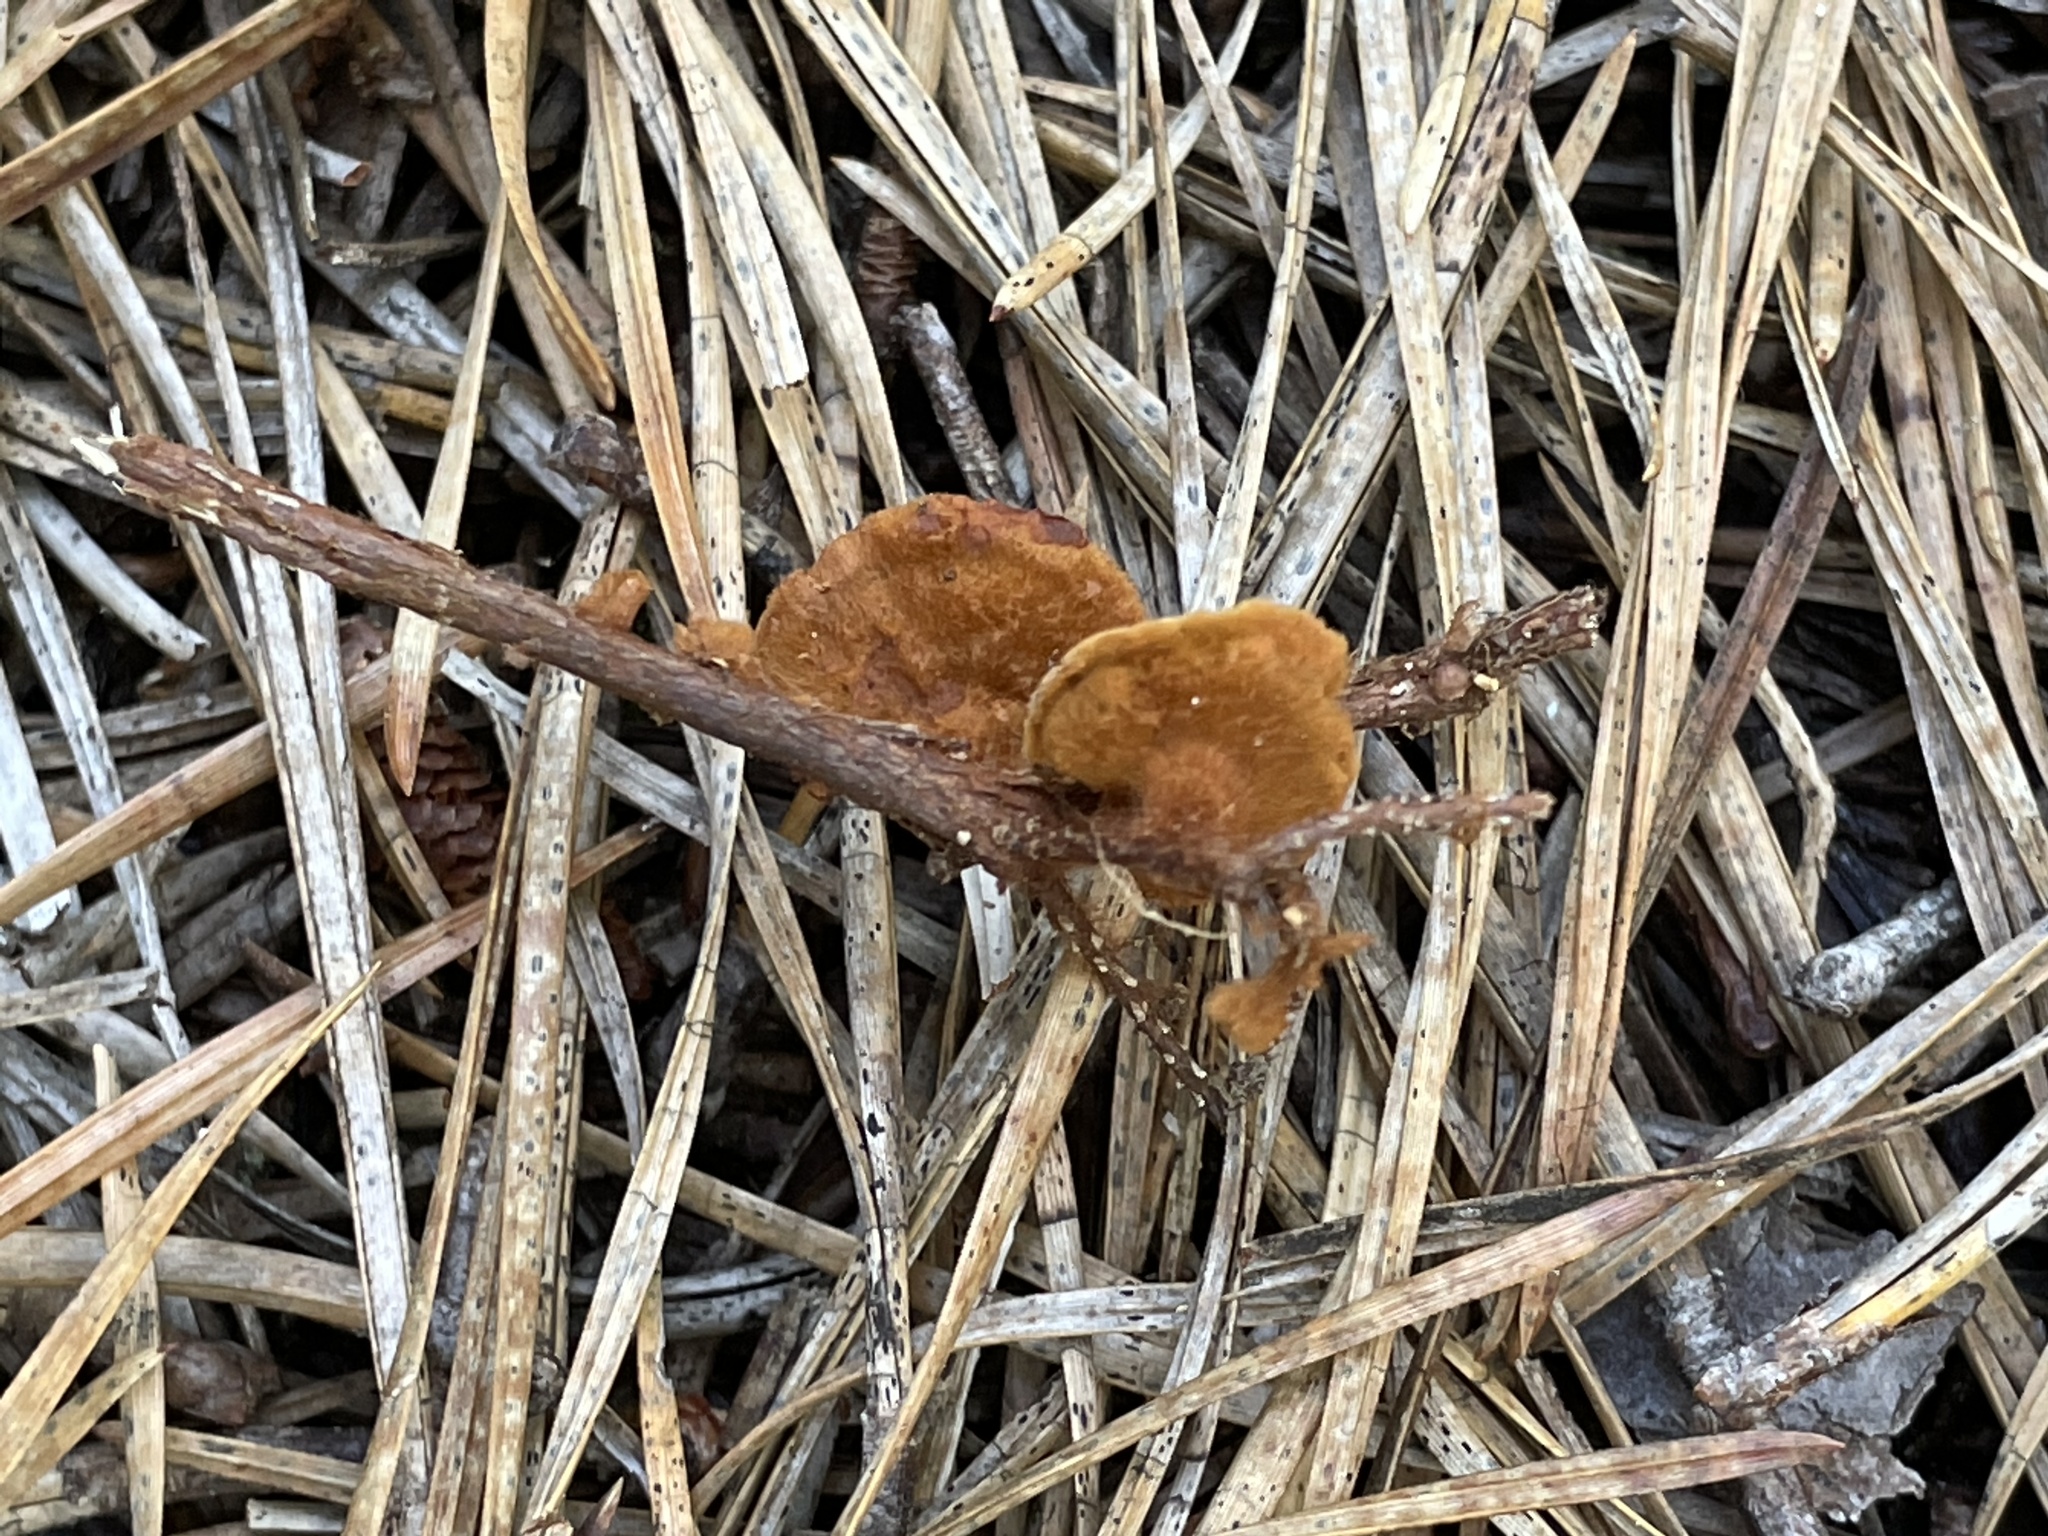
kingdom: Fungi
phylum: Basidiomycota
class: Agaricomycetes
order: Hymenochaetales
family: Hymenochaetaceae
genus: Coltriciella
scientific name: Coltriciella dependens
